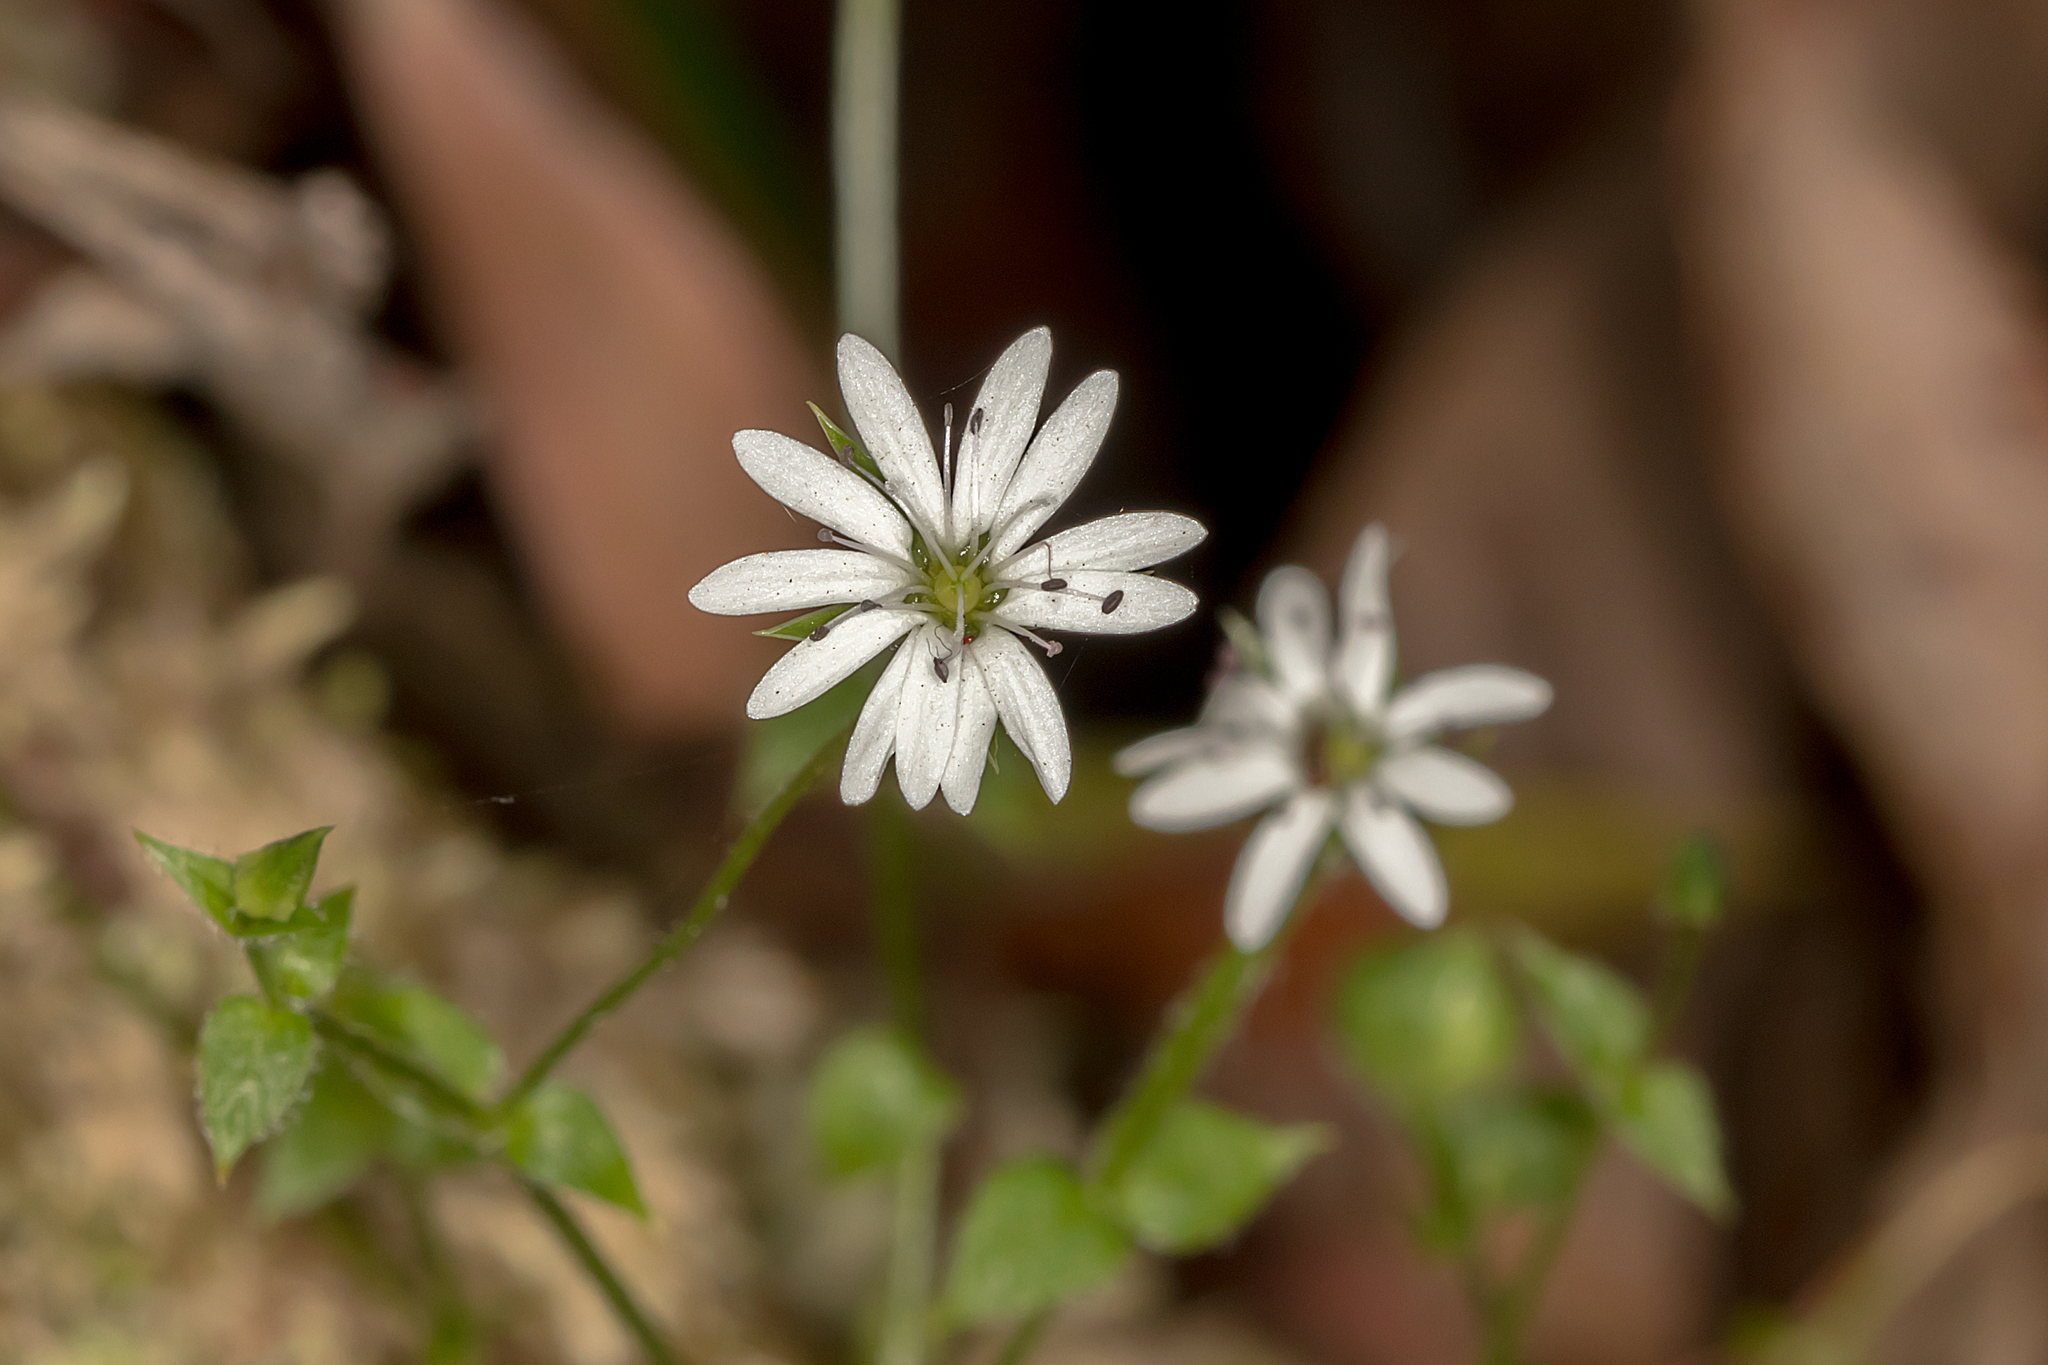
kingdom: Plantae
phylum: Tracheophyta
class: Magnoliopsida
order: Caryophyllales
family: Caryophyllaceae
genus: Stellaria
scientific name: Stellaria flaccida
